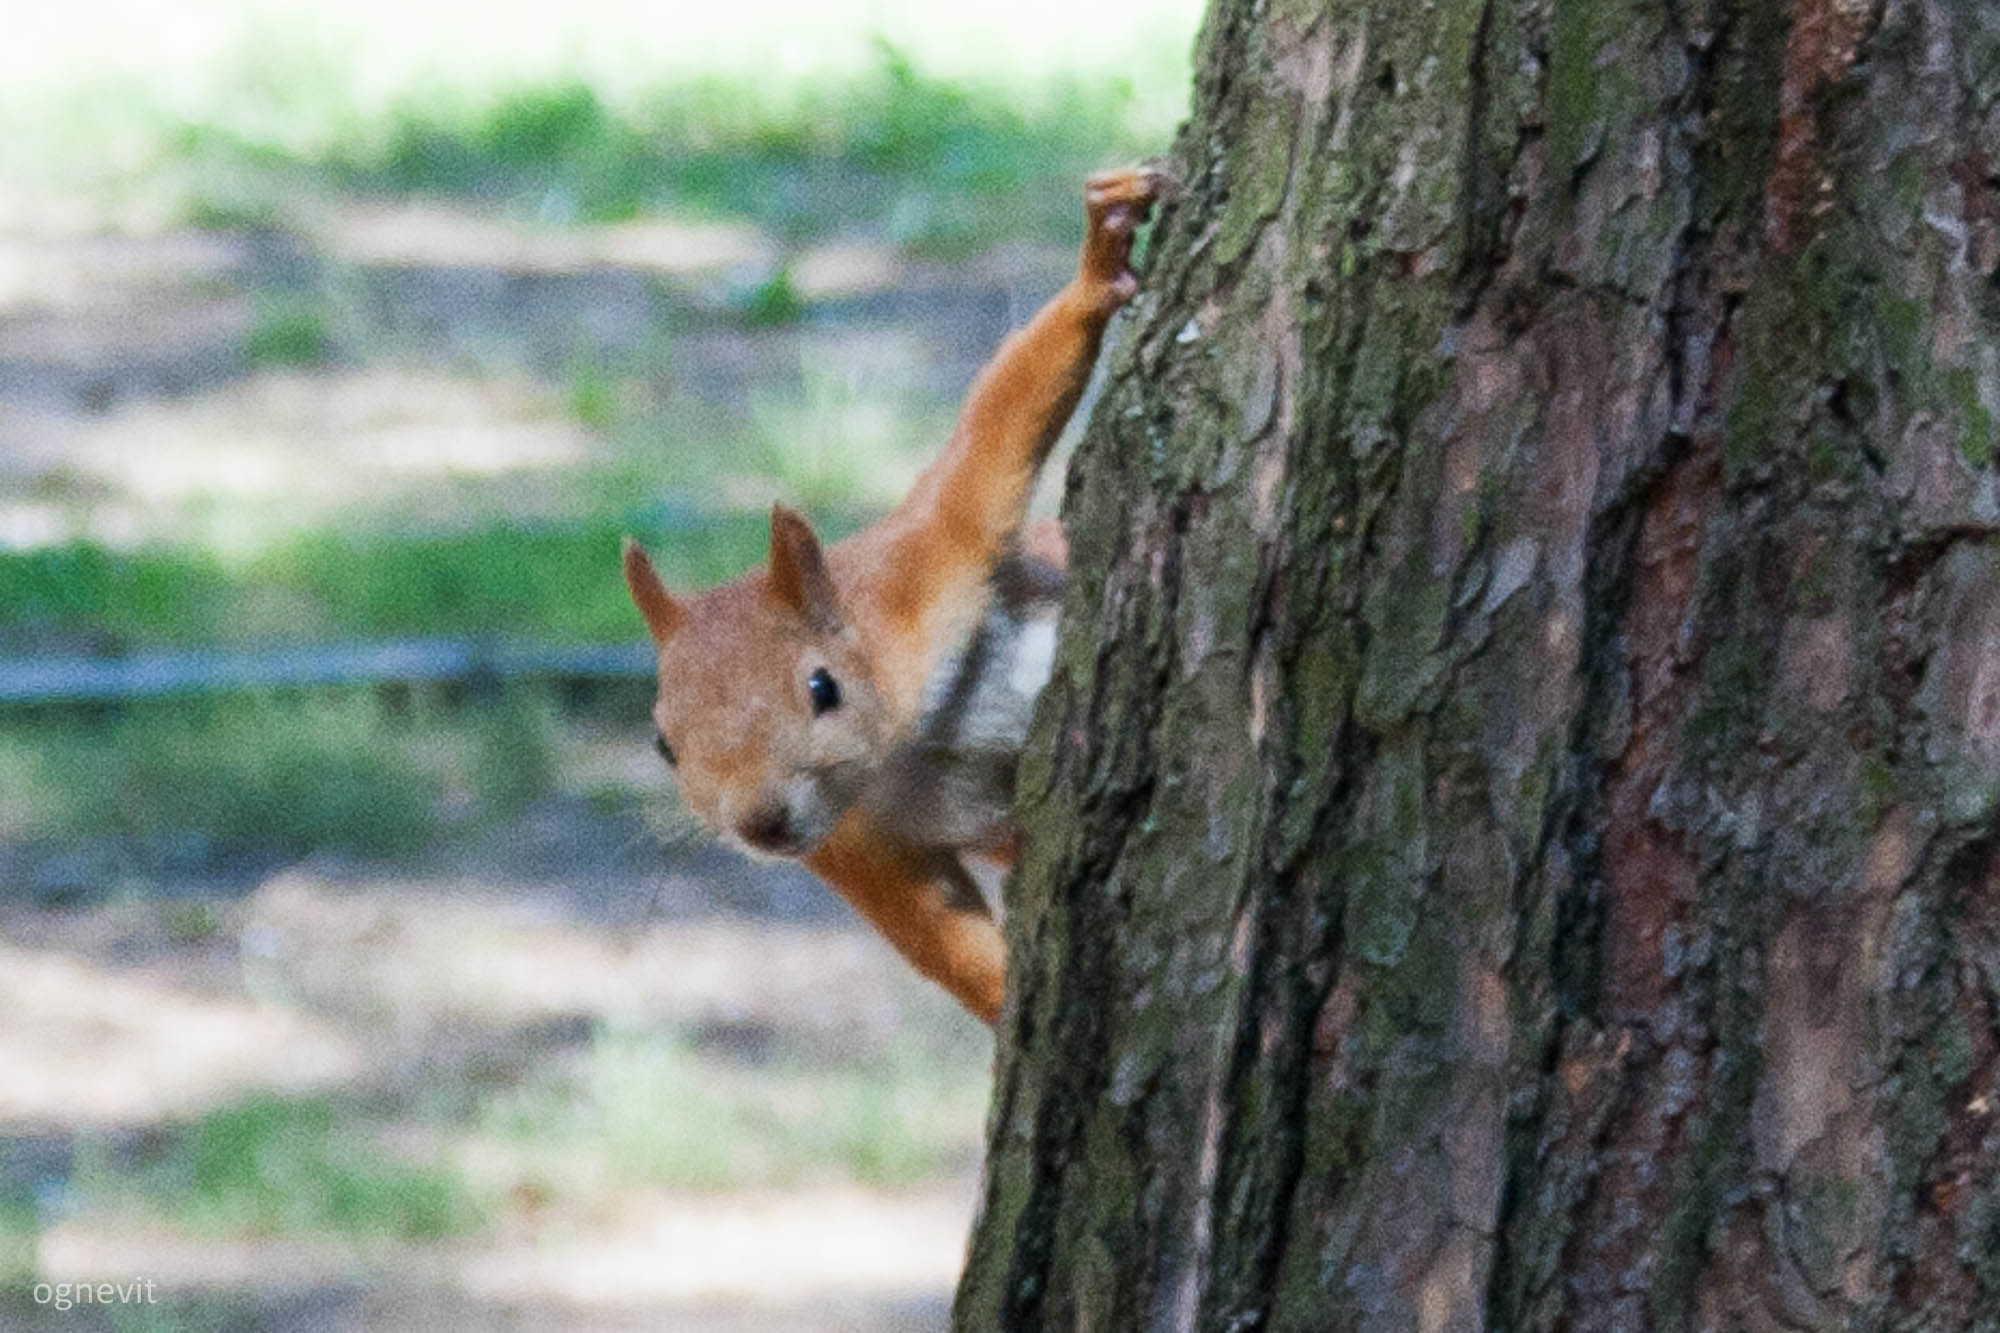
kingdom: Animalia
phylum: Chordata
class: Mammalia
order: Rodentia
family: Sciuridae
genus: Sciurus
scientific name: Sciurus vulgaris
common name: Eurasian red squirrel
